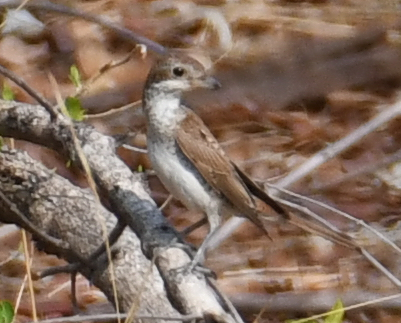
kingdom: Animalia
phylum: Chordata
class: Aves
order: Passeriformes
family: Laniidae
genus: Lanius
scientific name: Lanius collurio
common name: Red-backed shrike
